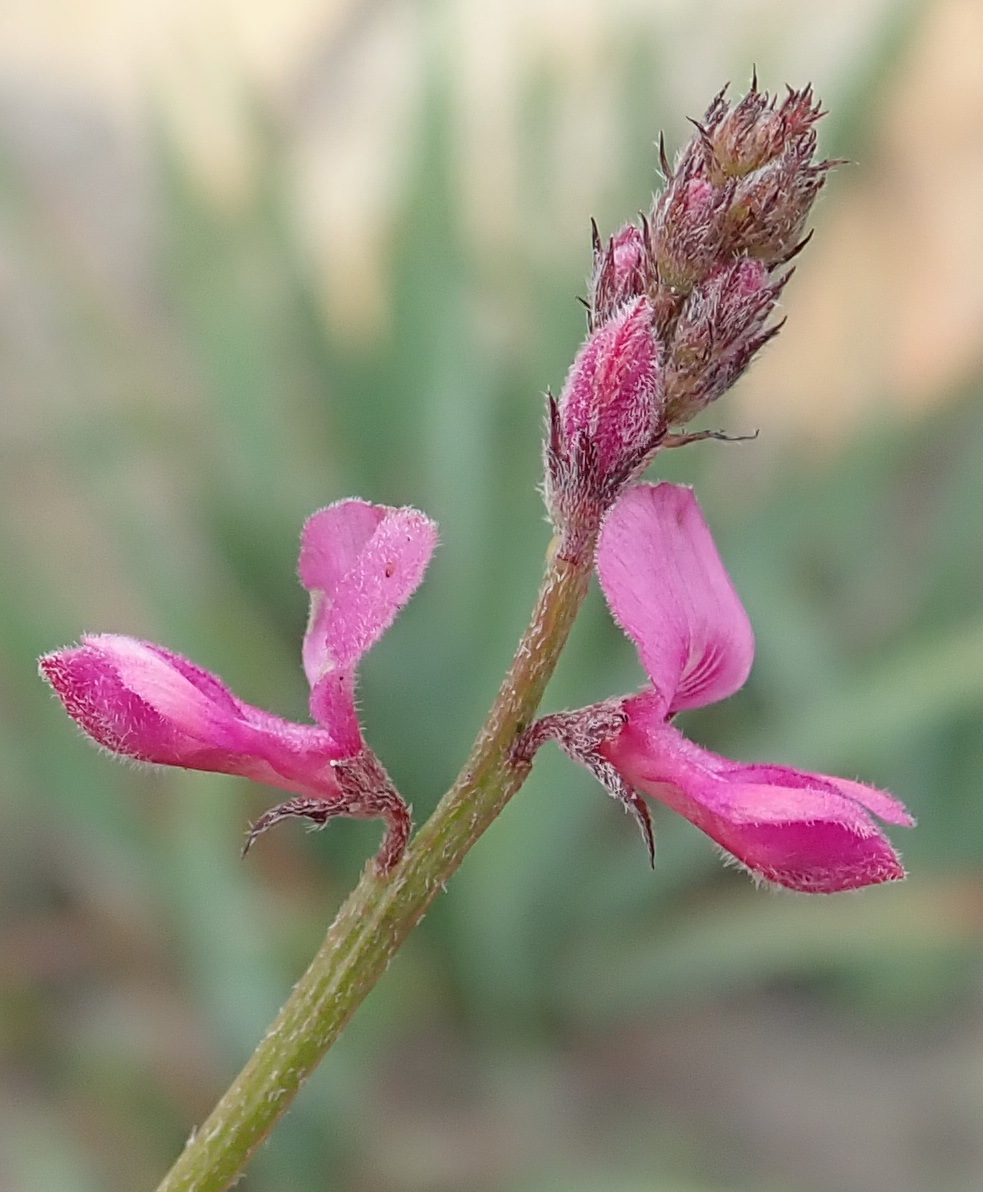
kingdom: Plantae
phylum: Tracheophyta
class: Magnoliopsida
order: Fabales
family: Fabaceae
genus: Indigofera
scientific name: Indigofera declinata
